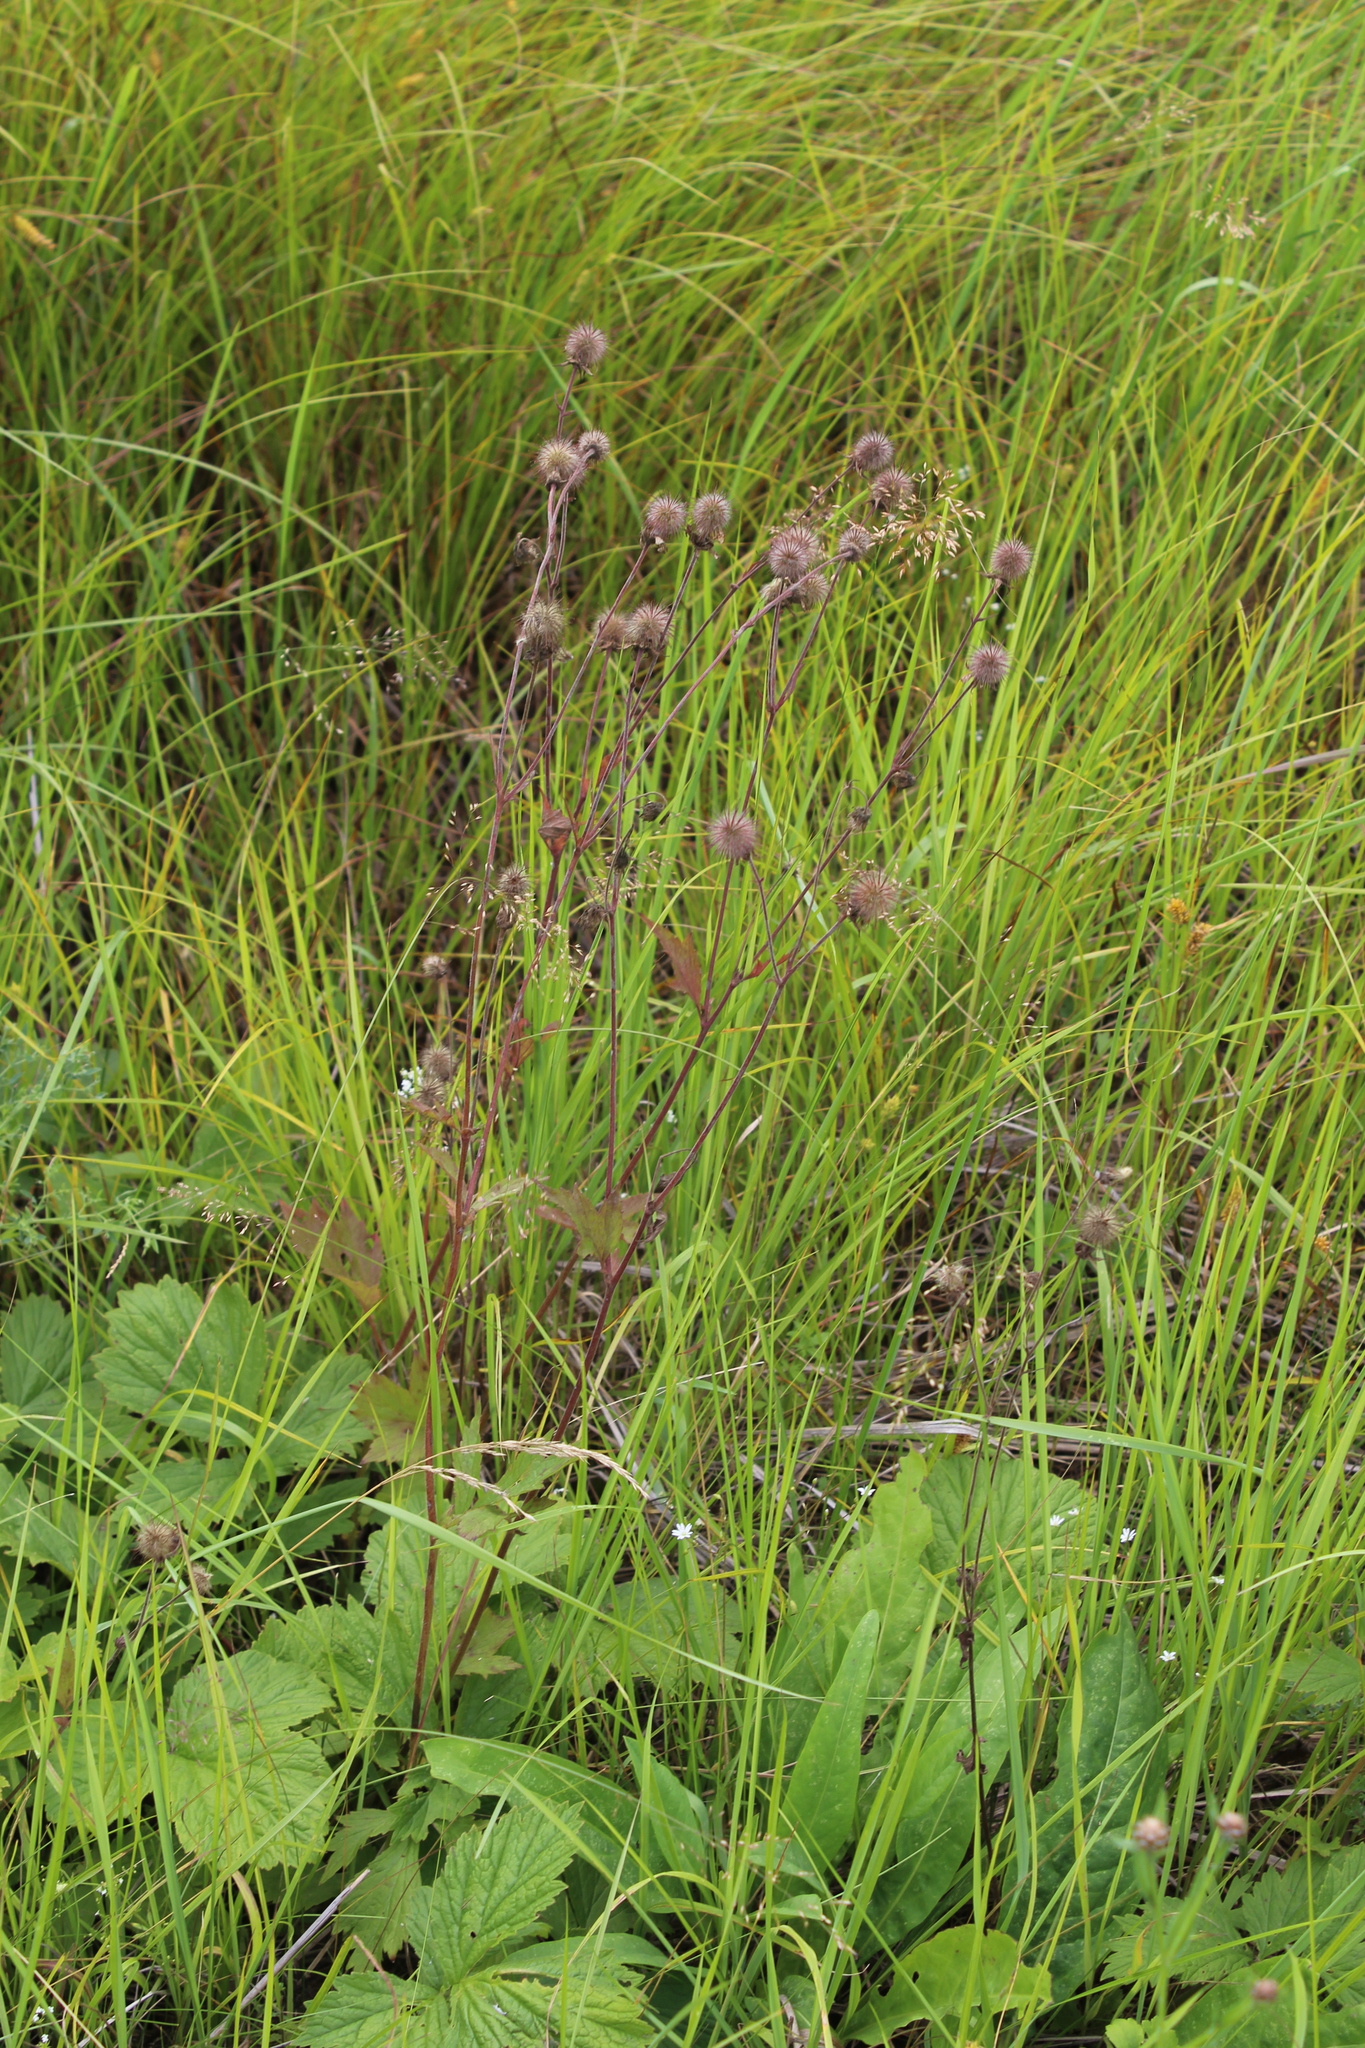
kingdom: Plantae
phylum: Tracheophyta
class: Magnoliopsida
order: Rosales
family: Rosaceae
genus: Geum
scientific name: Geum rivale
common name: Water avens
